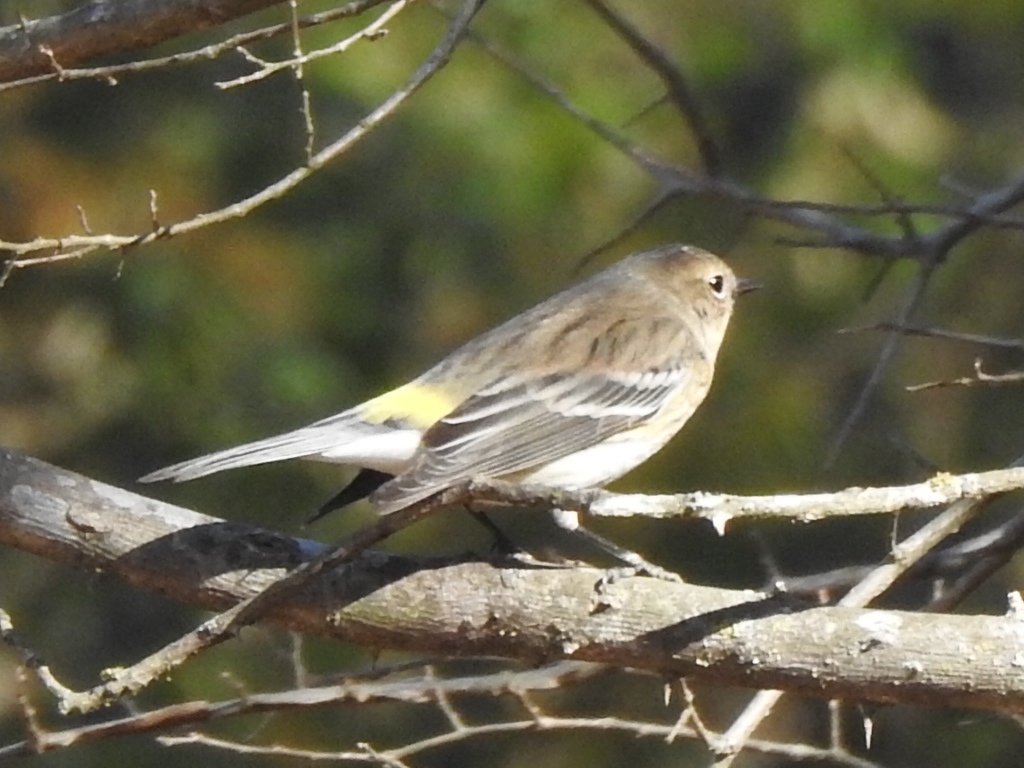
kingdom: Animalia
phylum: Chordata
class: Aves
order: Passeriformes
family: Parulidae
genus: Setophaga
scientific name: Setophaga coronata
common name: Myrtle warbler
